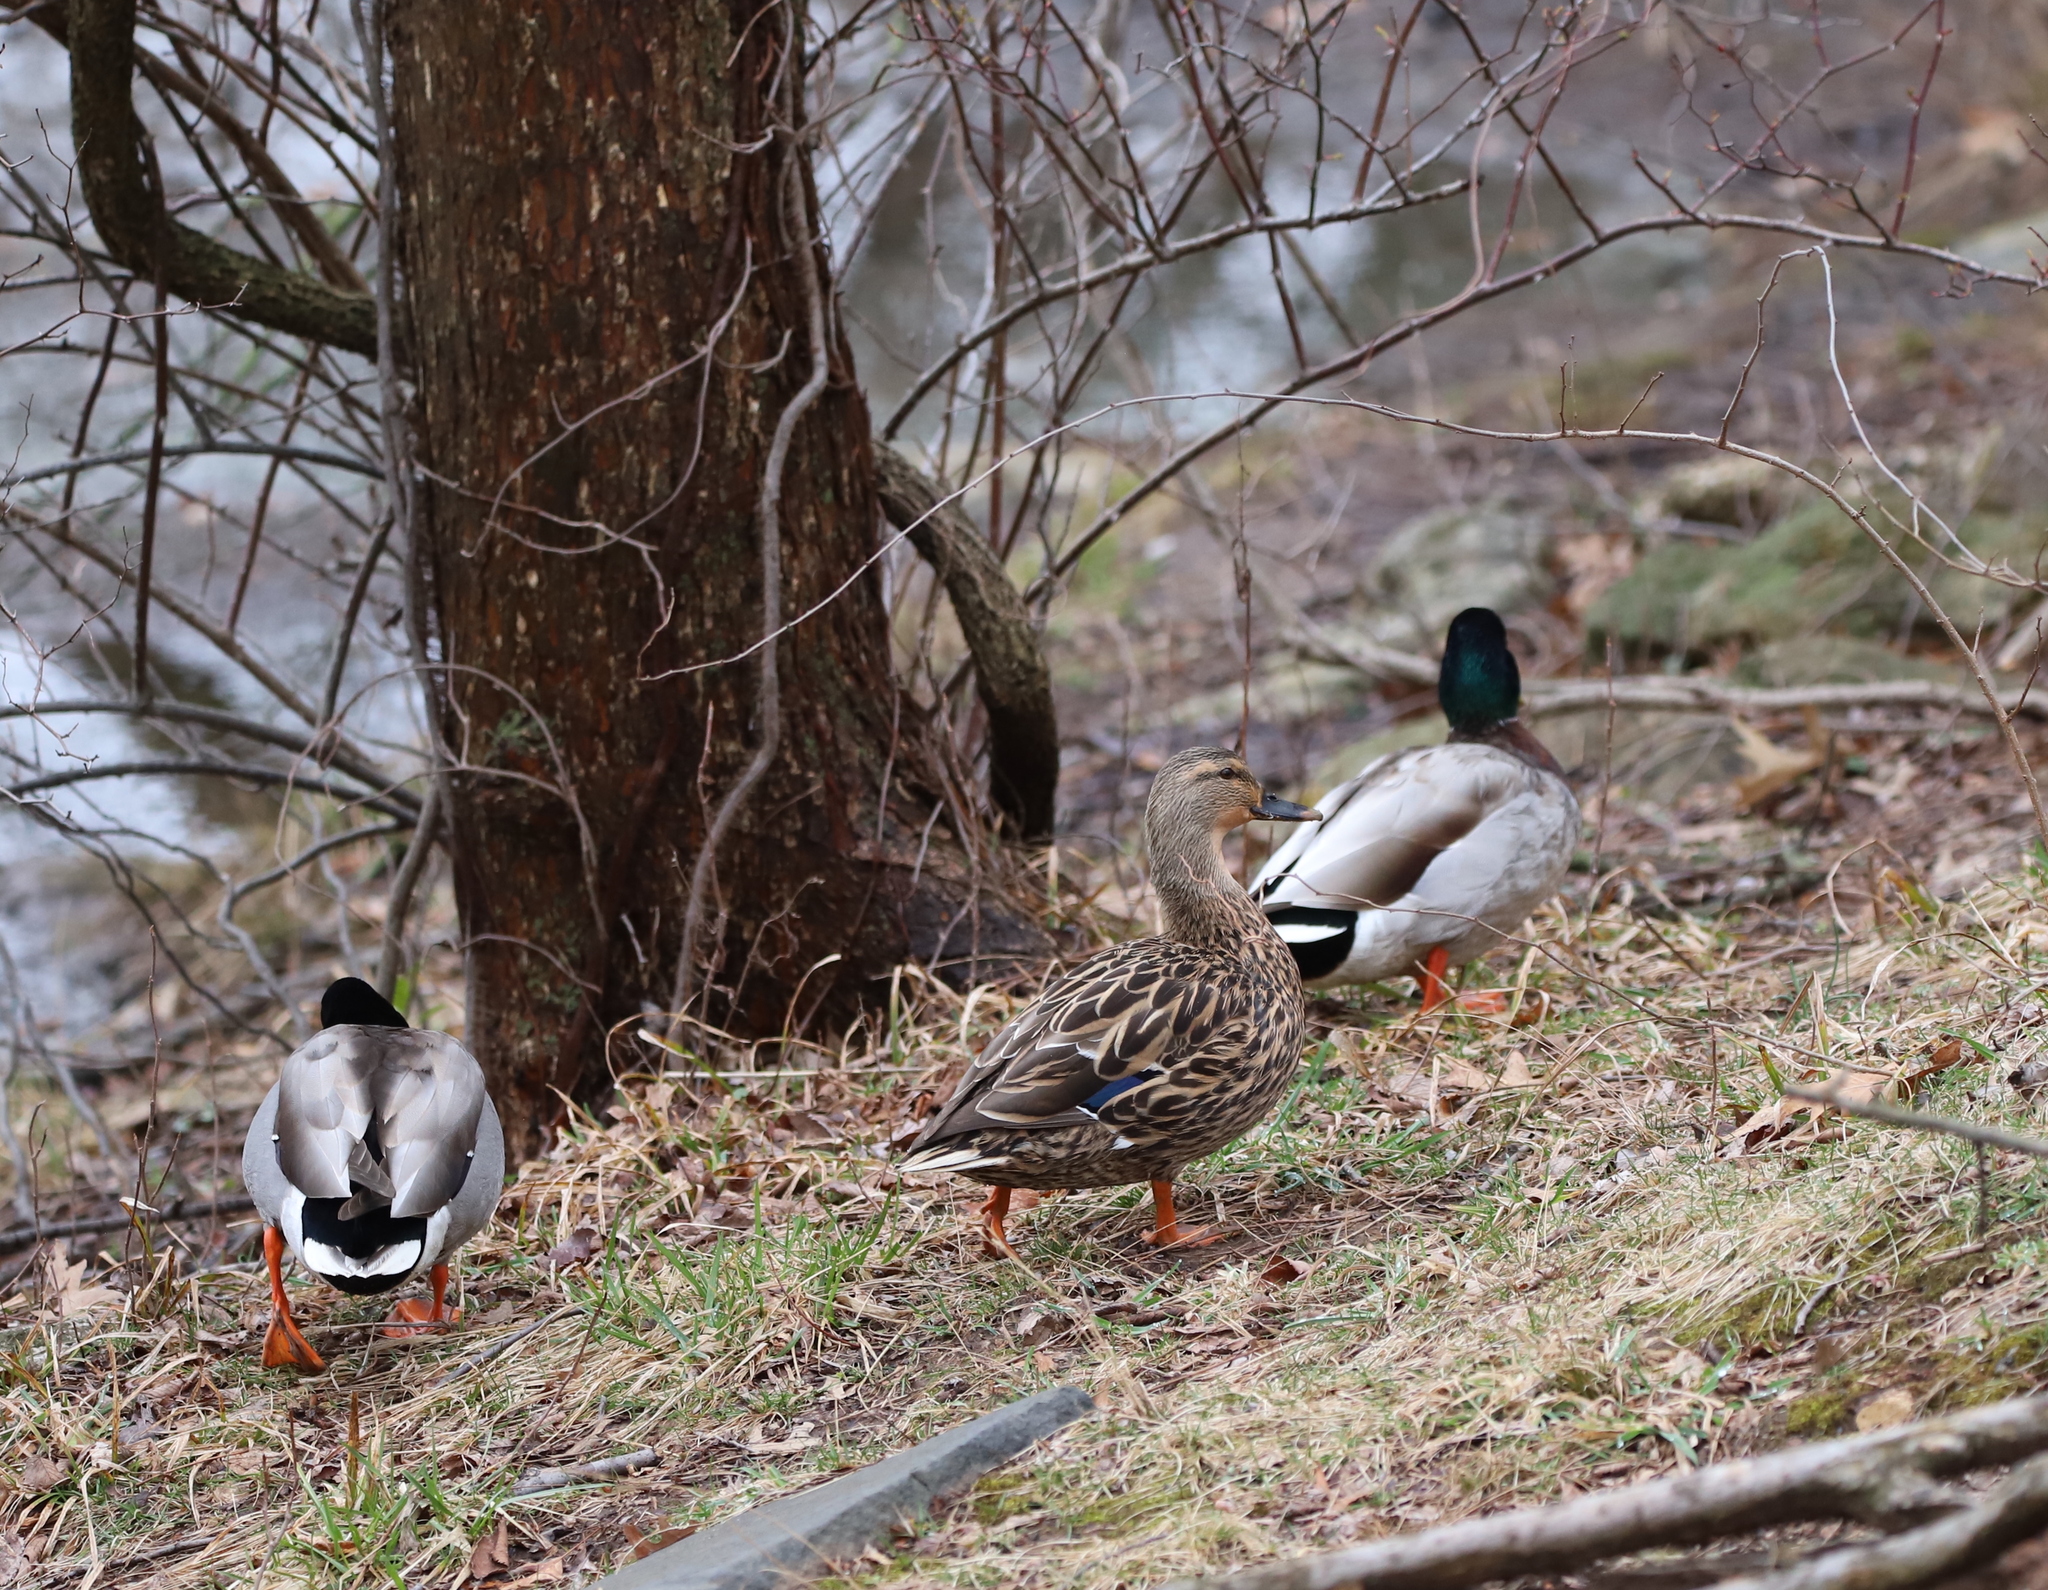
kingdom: Animalia
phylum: Chordata
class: Aves
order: Anseriformes
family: Anatidae
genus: Anas
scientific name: Anas platyrhynchos
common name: Mallard
